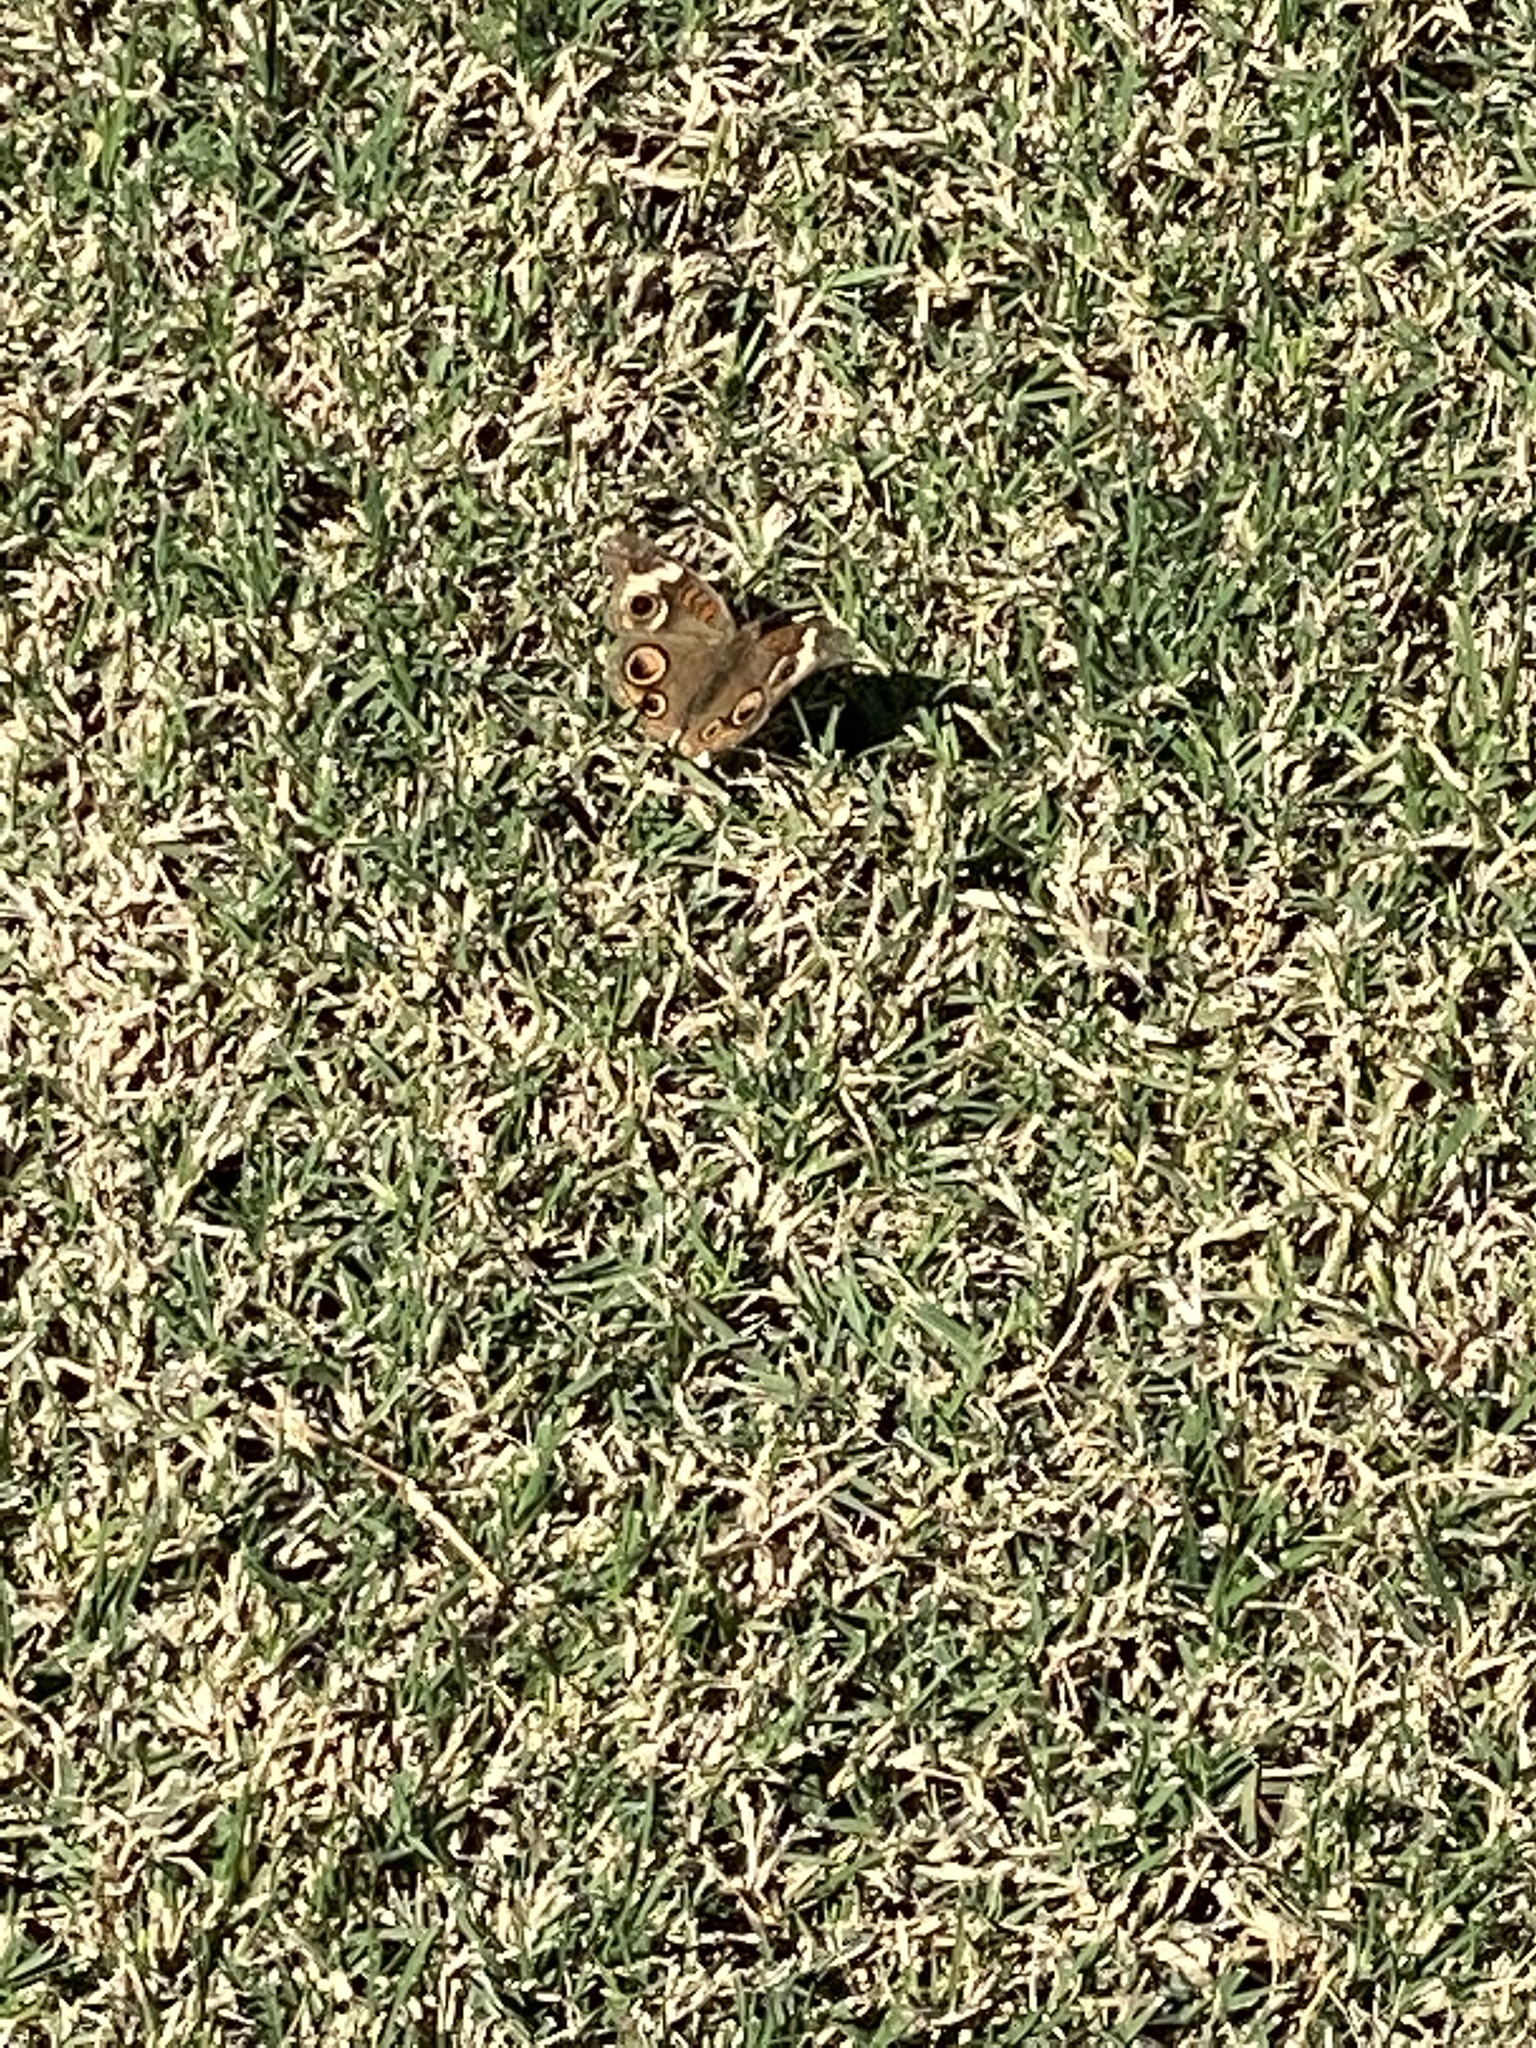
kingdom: Animalia
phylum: Arthropoda
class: Insecta
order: Lepidoptera
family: Nymphalidae
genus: Junonia
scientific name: Junonia coenia
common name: Common buckeye
